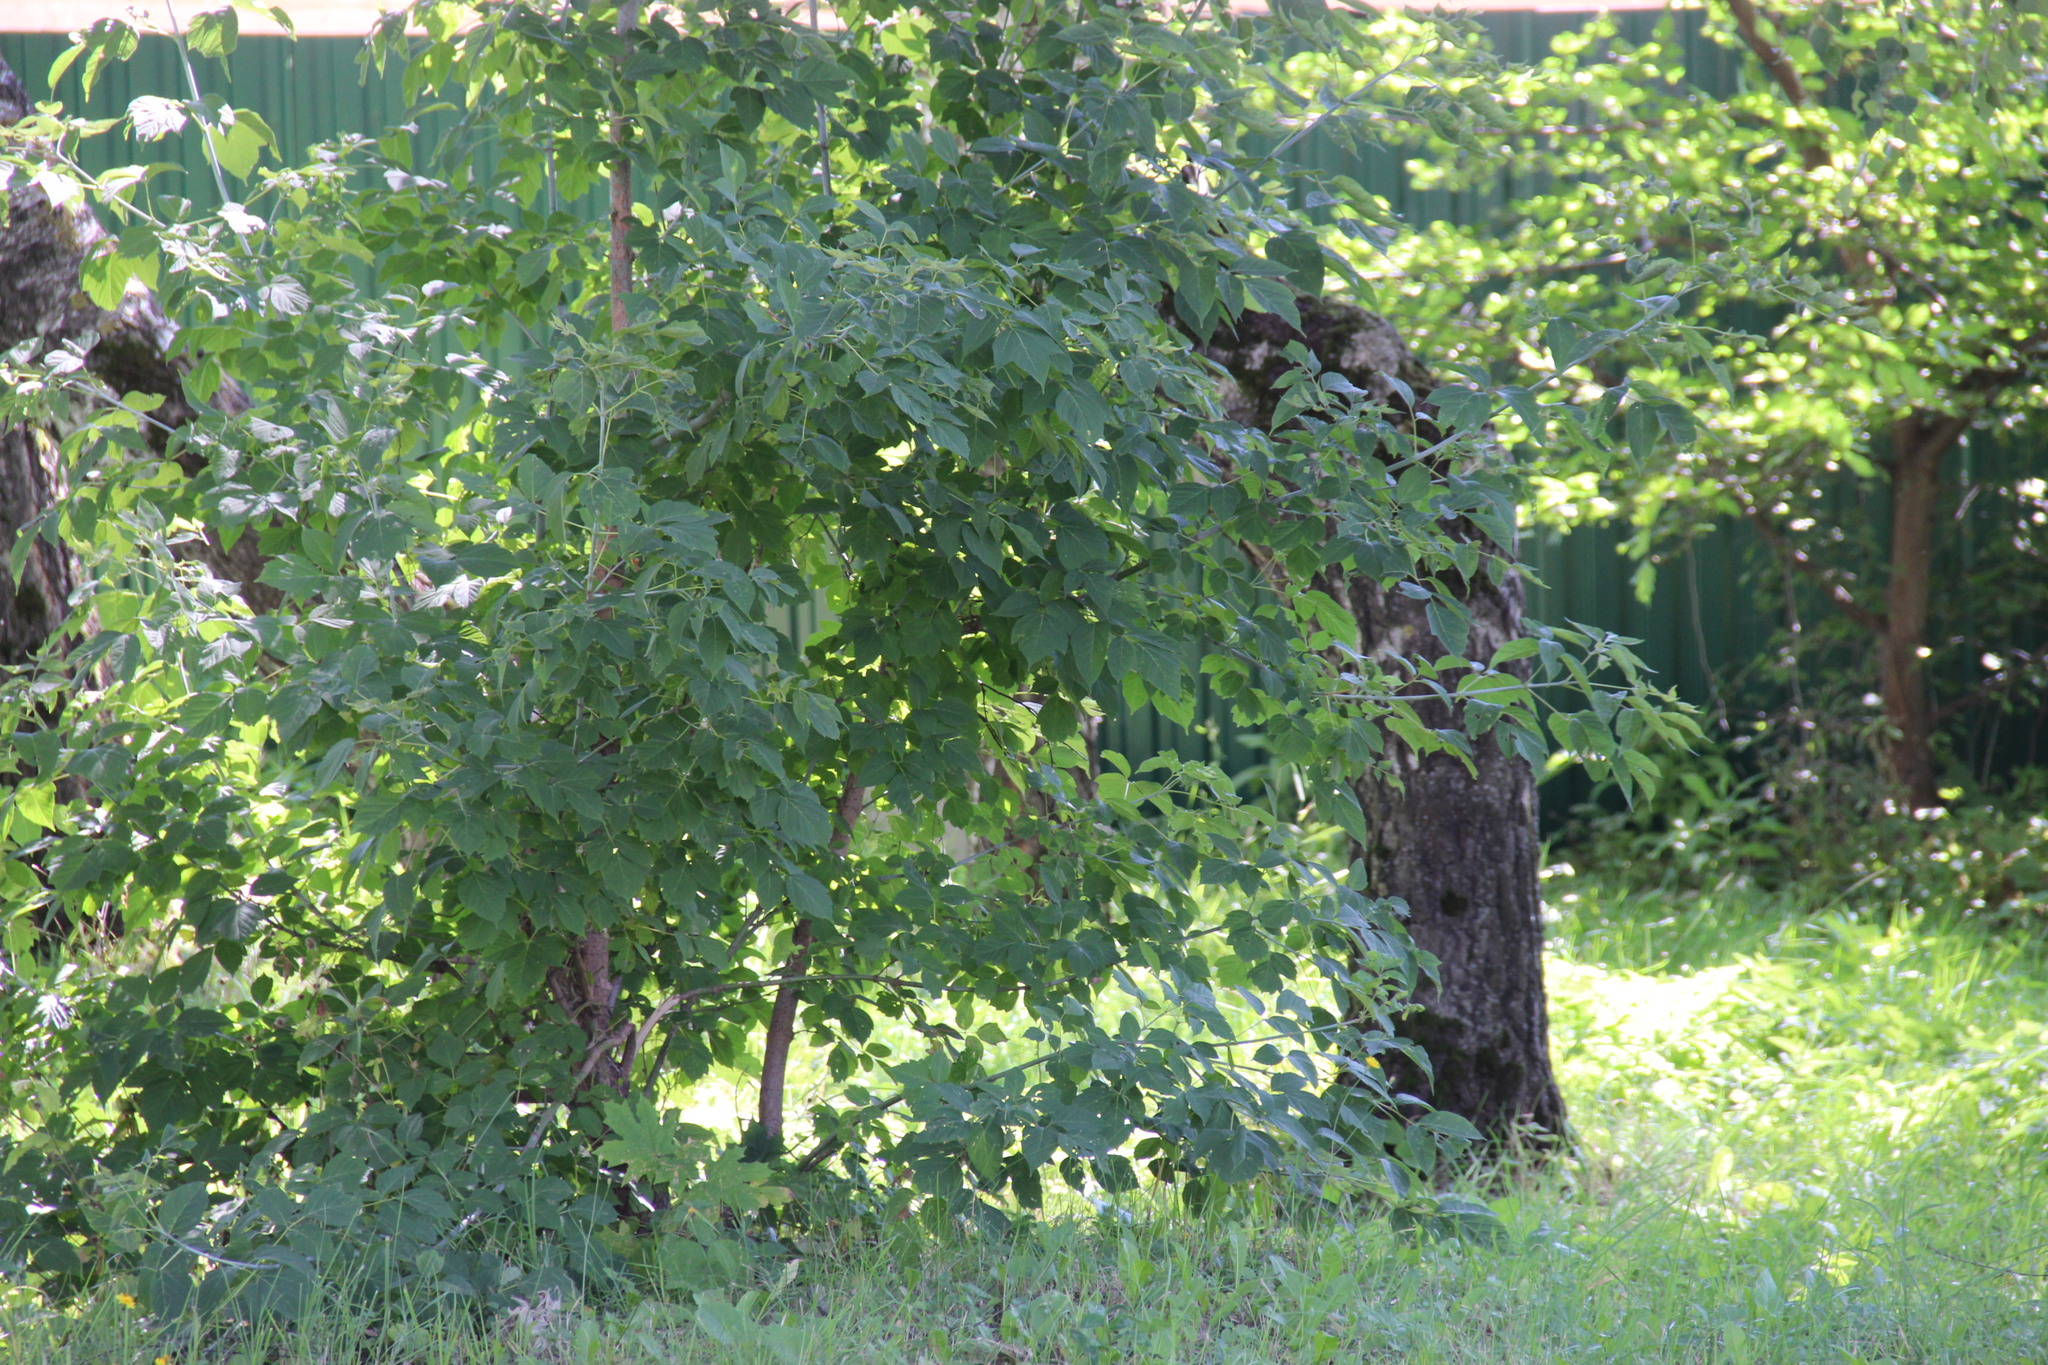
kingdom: Plantae
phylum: Tracheophyta
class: Magnoliopsida
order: Sapindales
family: Sapindaceae
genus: Acer
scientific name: Acer negundo
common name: Ashleaf maple
